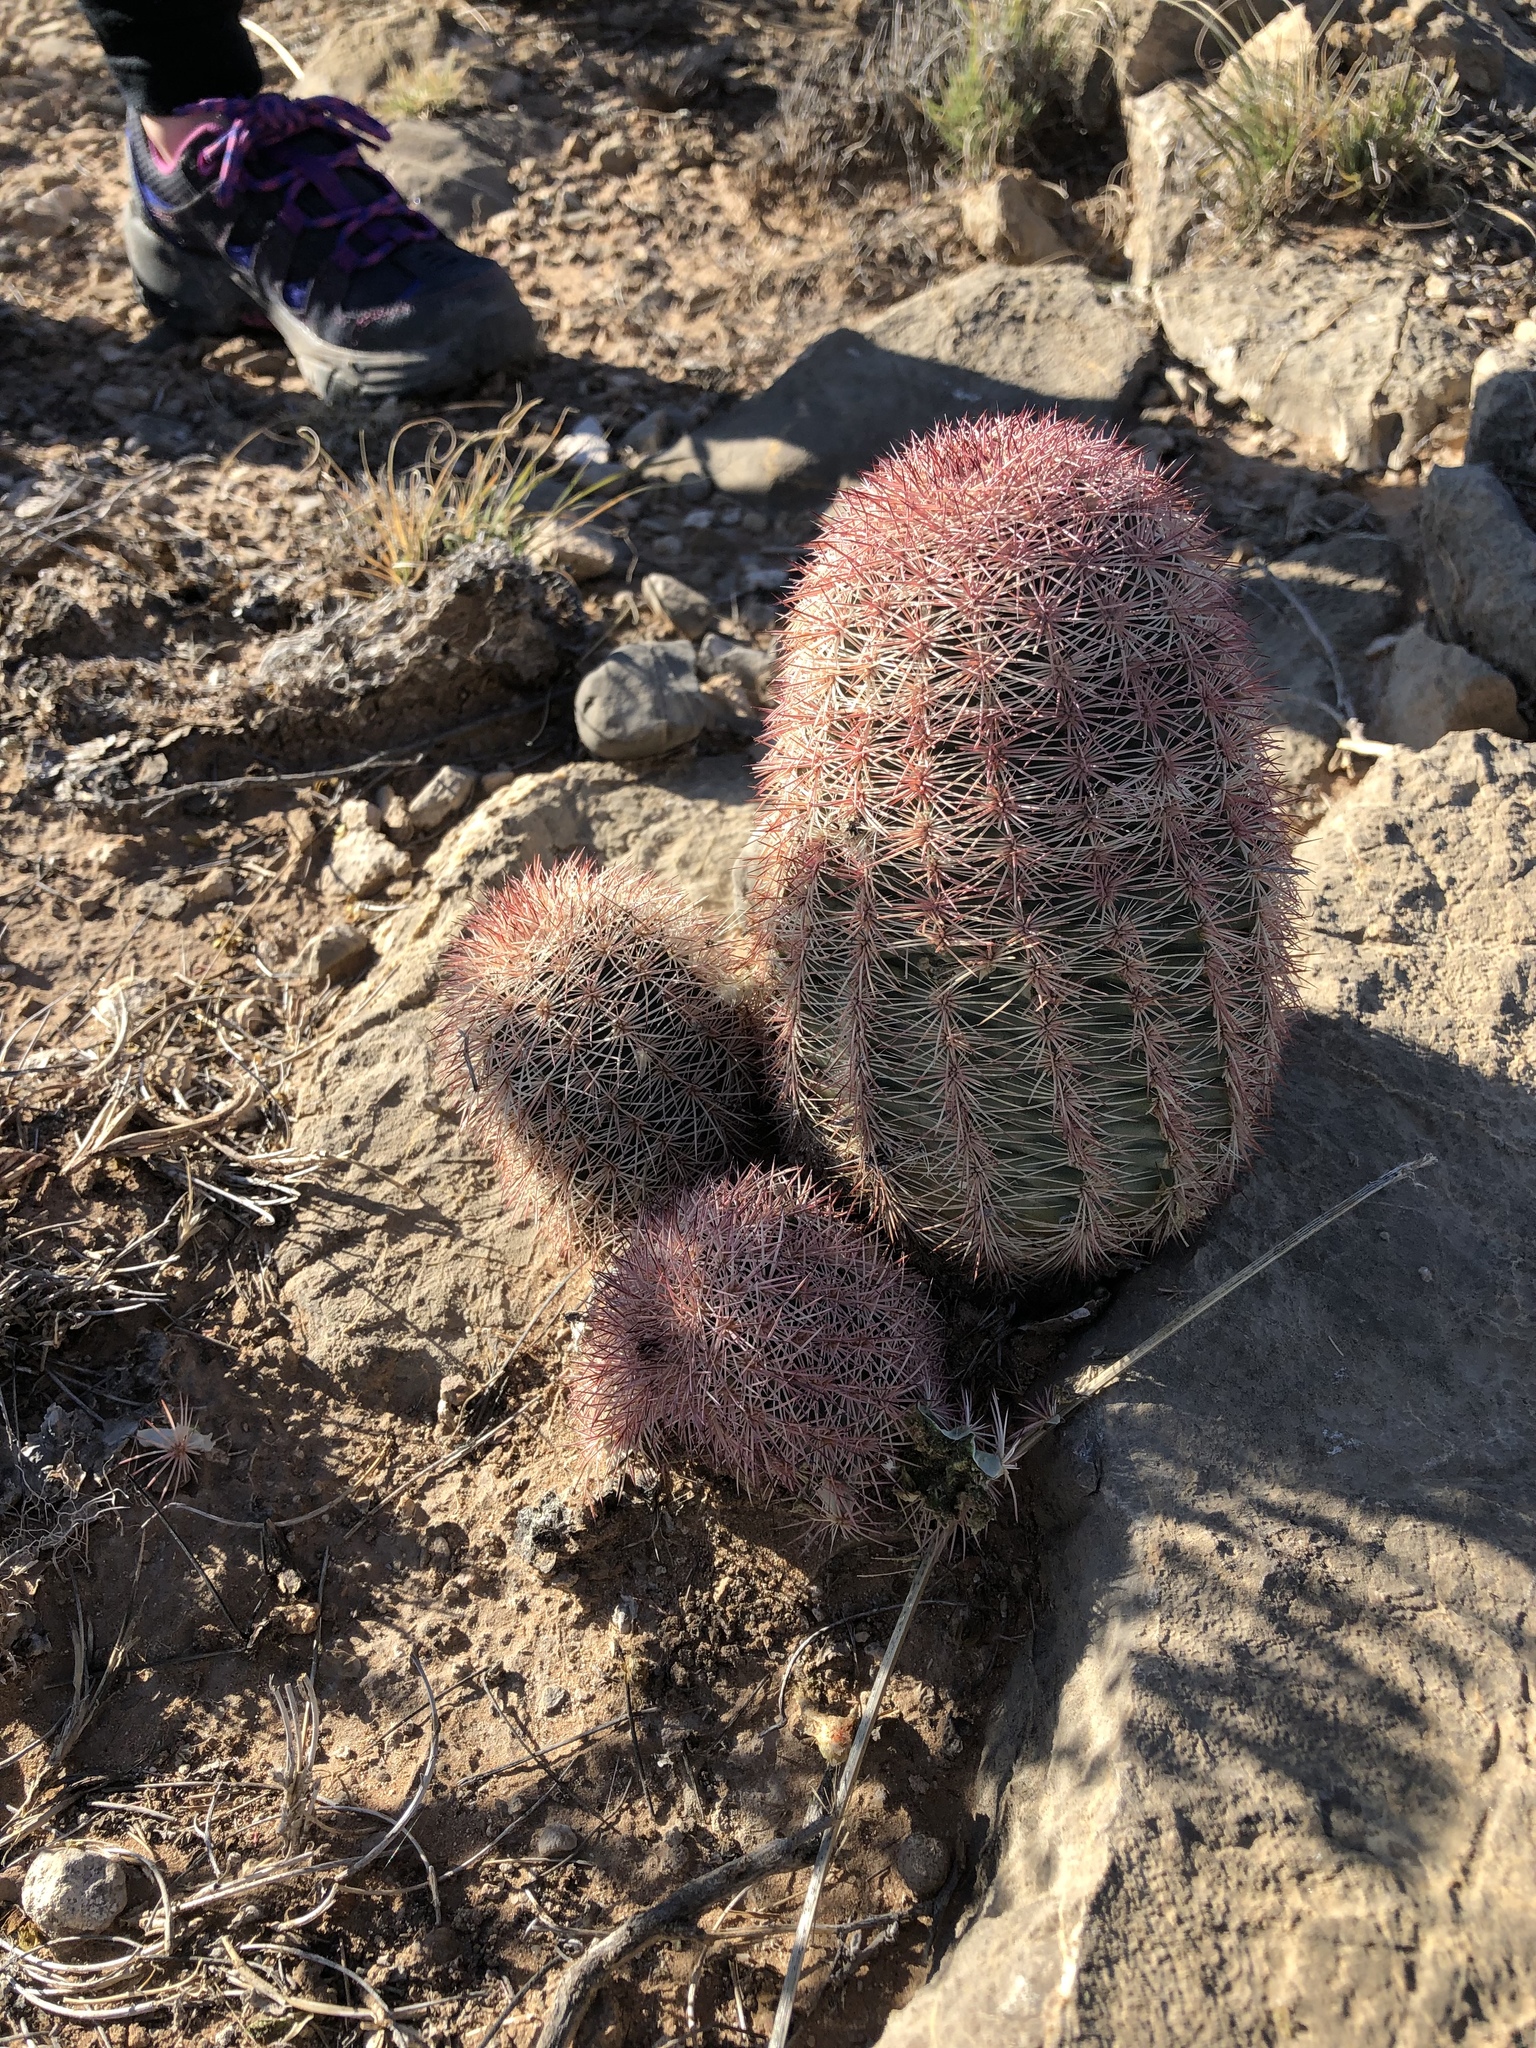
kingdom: Plantae
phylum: Tracheophyta
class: Magnoliopsida
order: Caryophyllales
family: Cactaceae
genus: Echinocereus
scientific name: Echinocereus dasyacanthus
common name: Spiny hedgehog cactus
